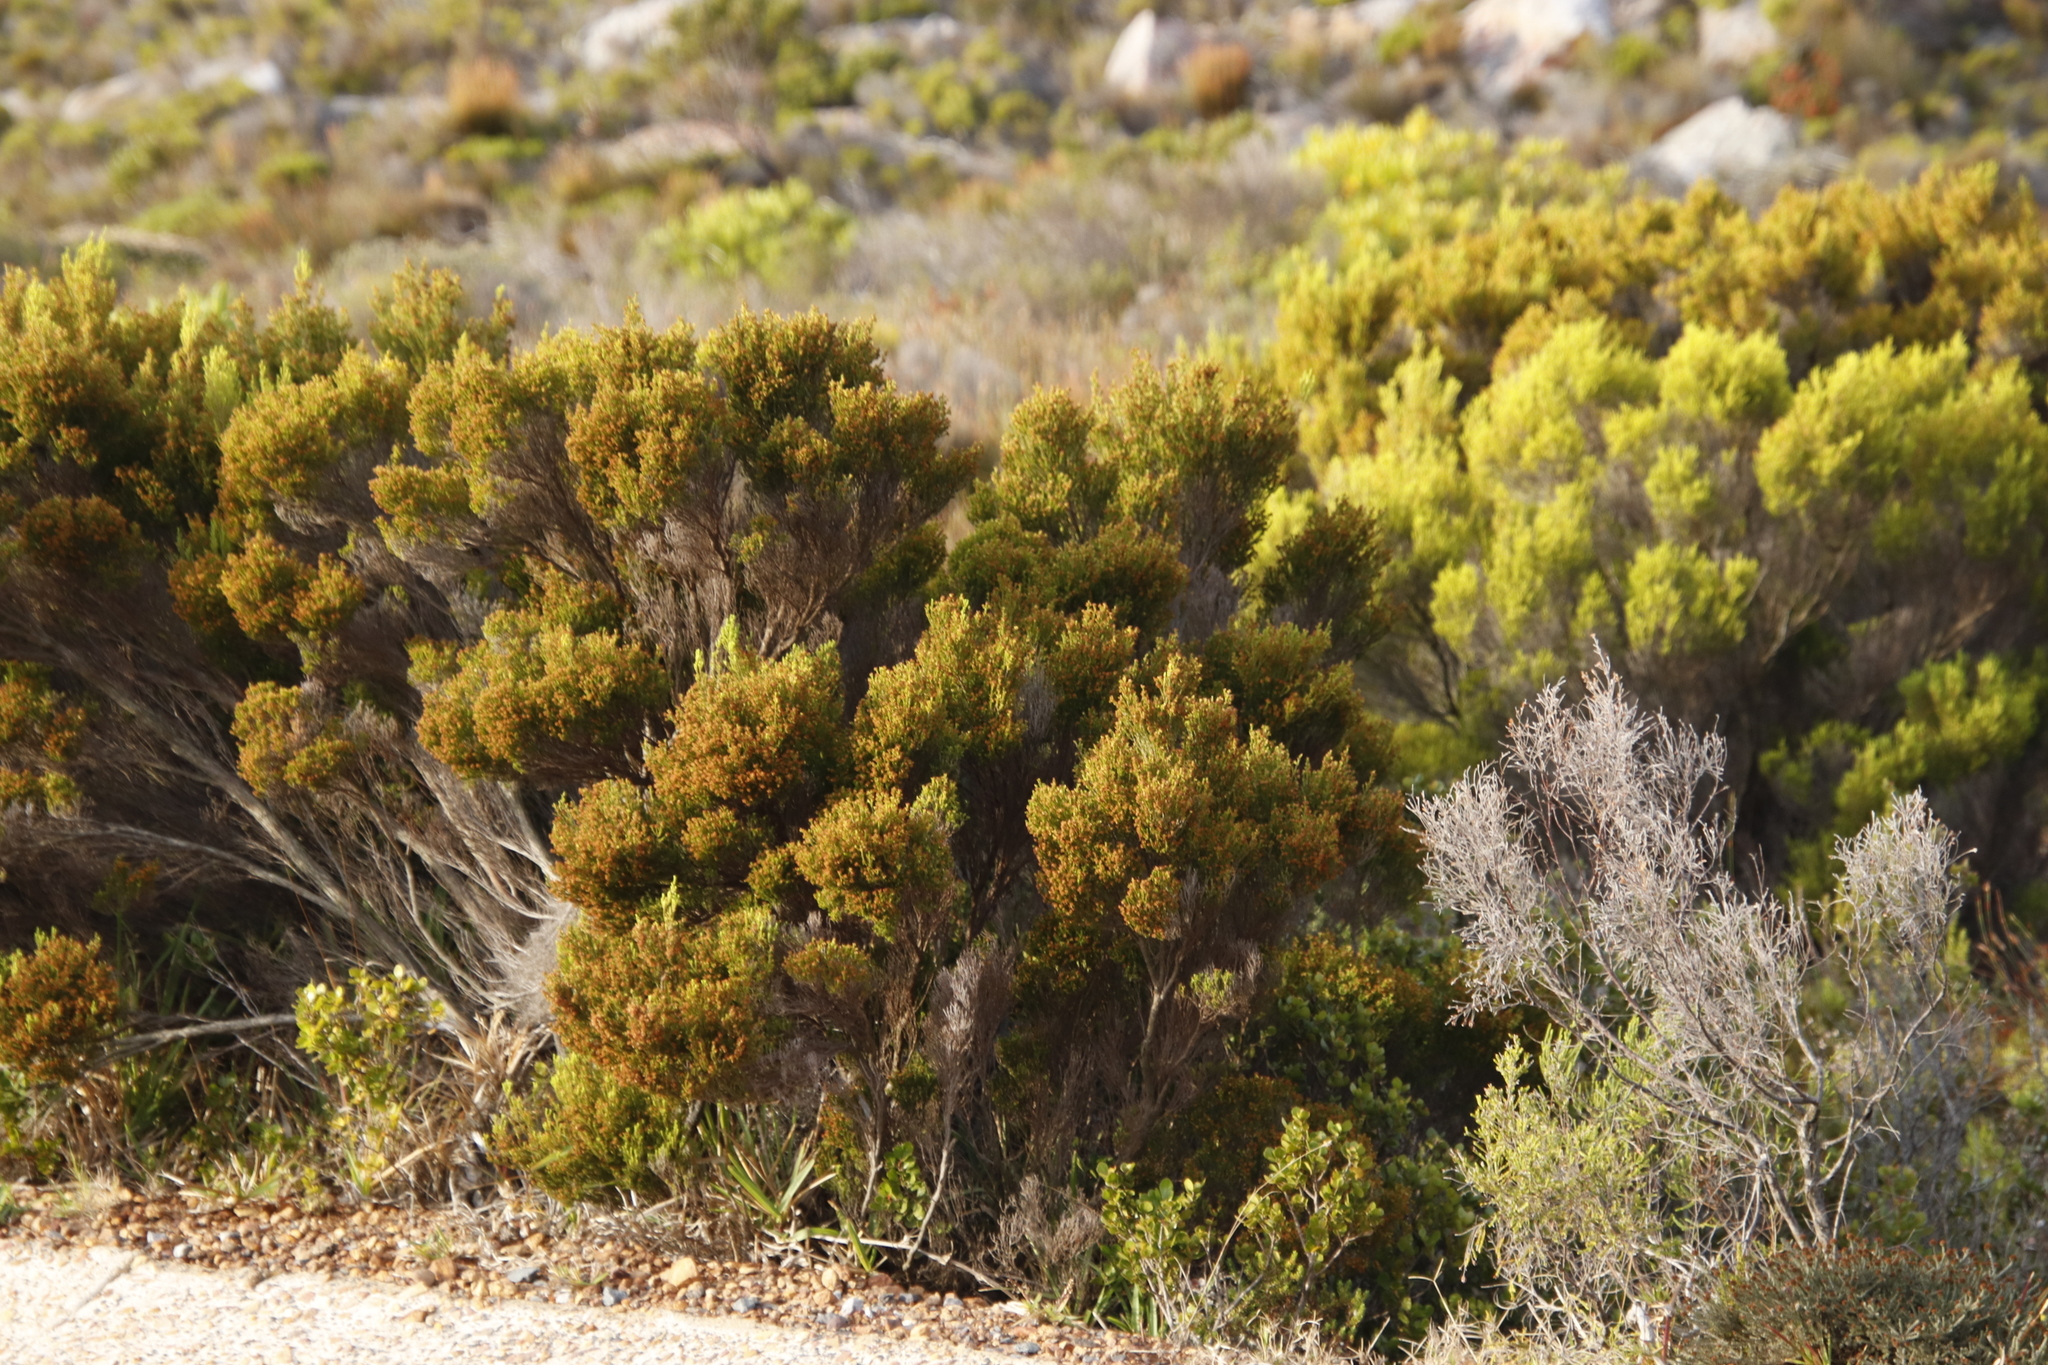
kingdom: Plantae
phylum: Tracheophyta
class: Magnoliopsida
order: Ericales
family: Ericaceae
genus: Erica
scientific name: Erica tristis
